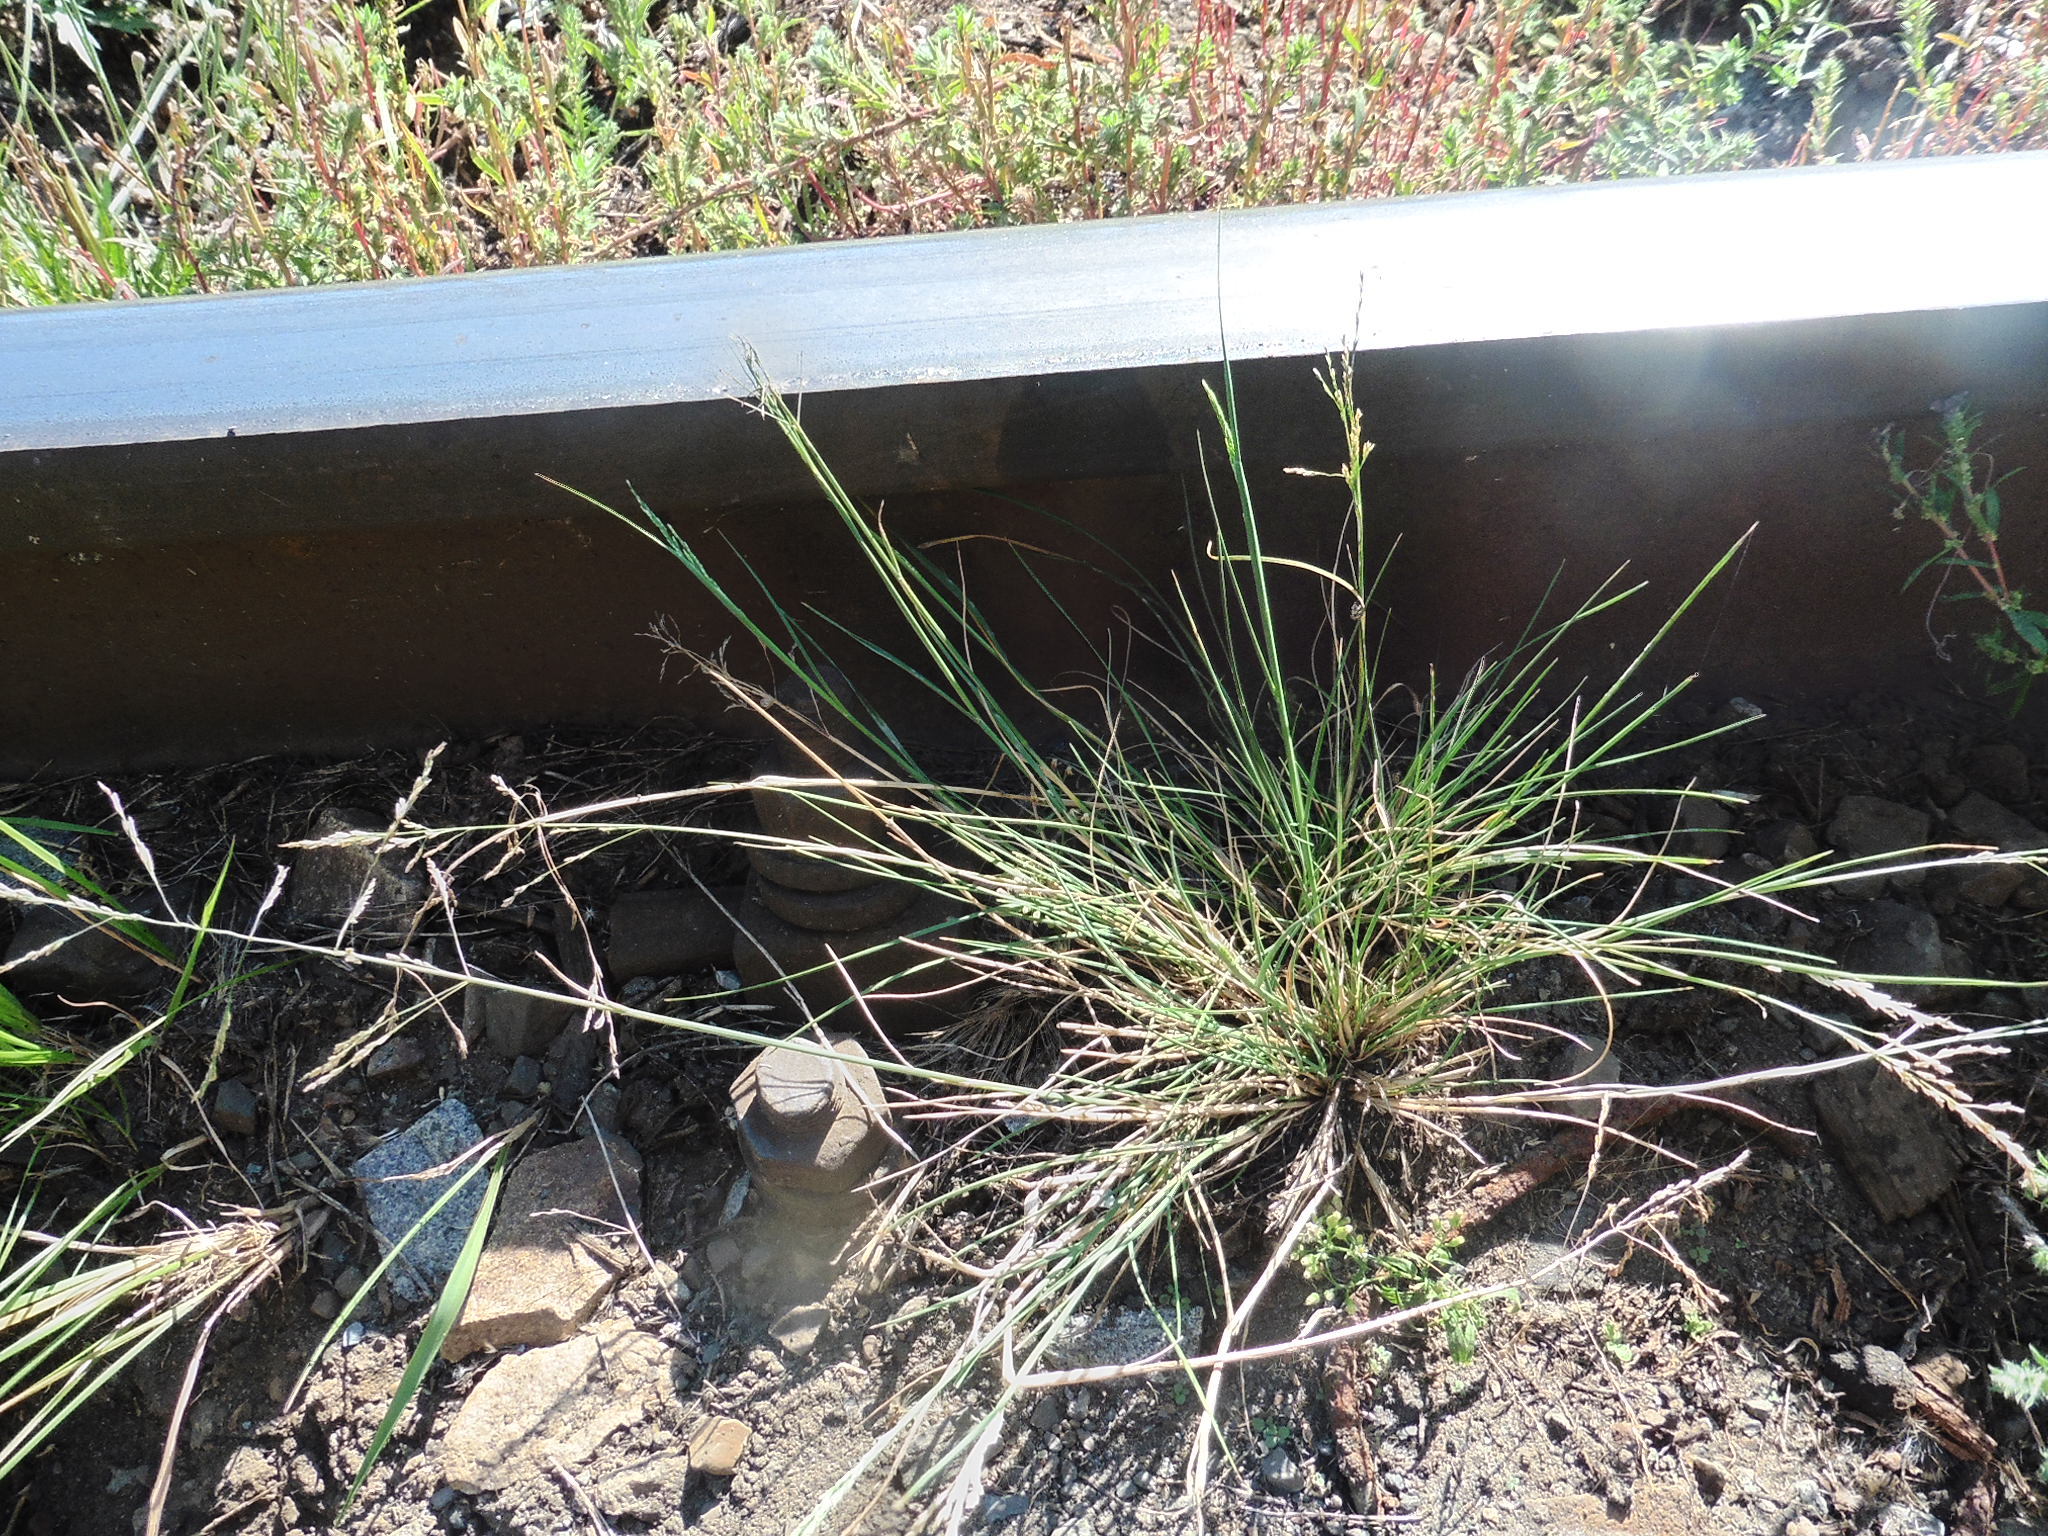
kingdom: Plantae
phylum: Tracheophyta
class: Liliopsida
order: Poales
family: Poaceae
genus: Puccinellia
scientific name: Puccinellia distans
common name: Weeping alkaligrass
